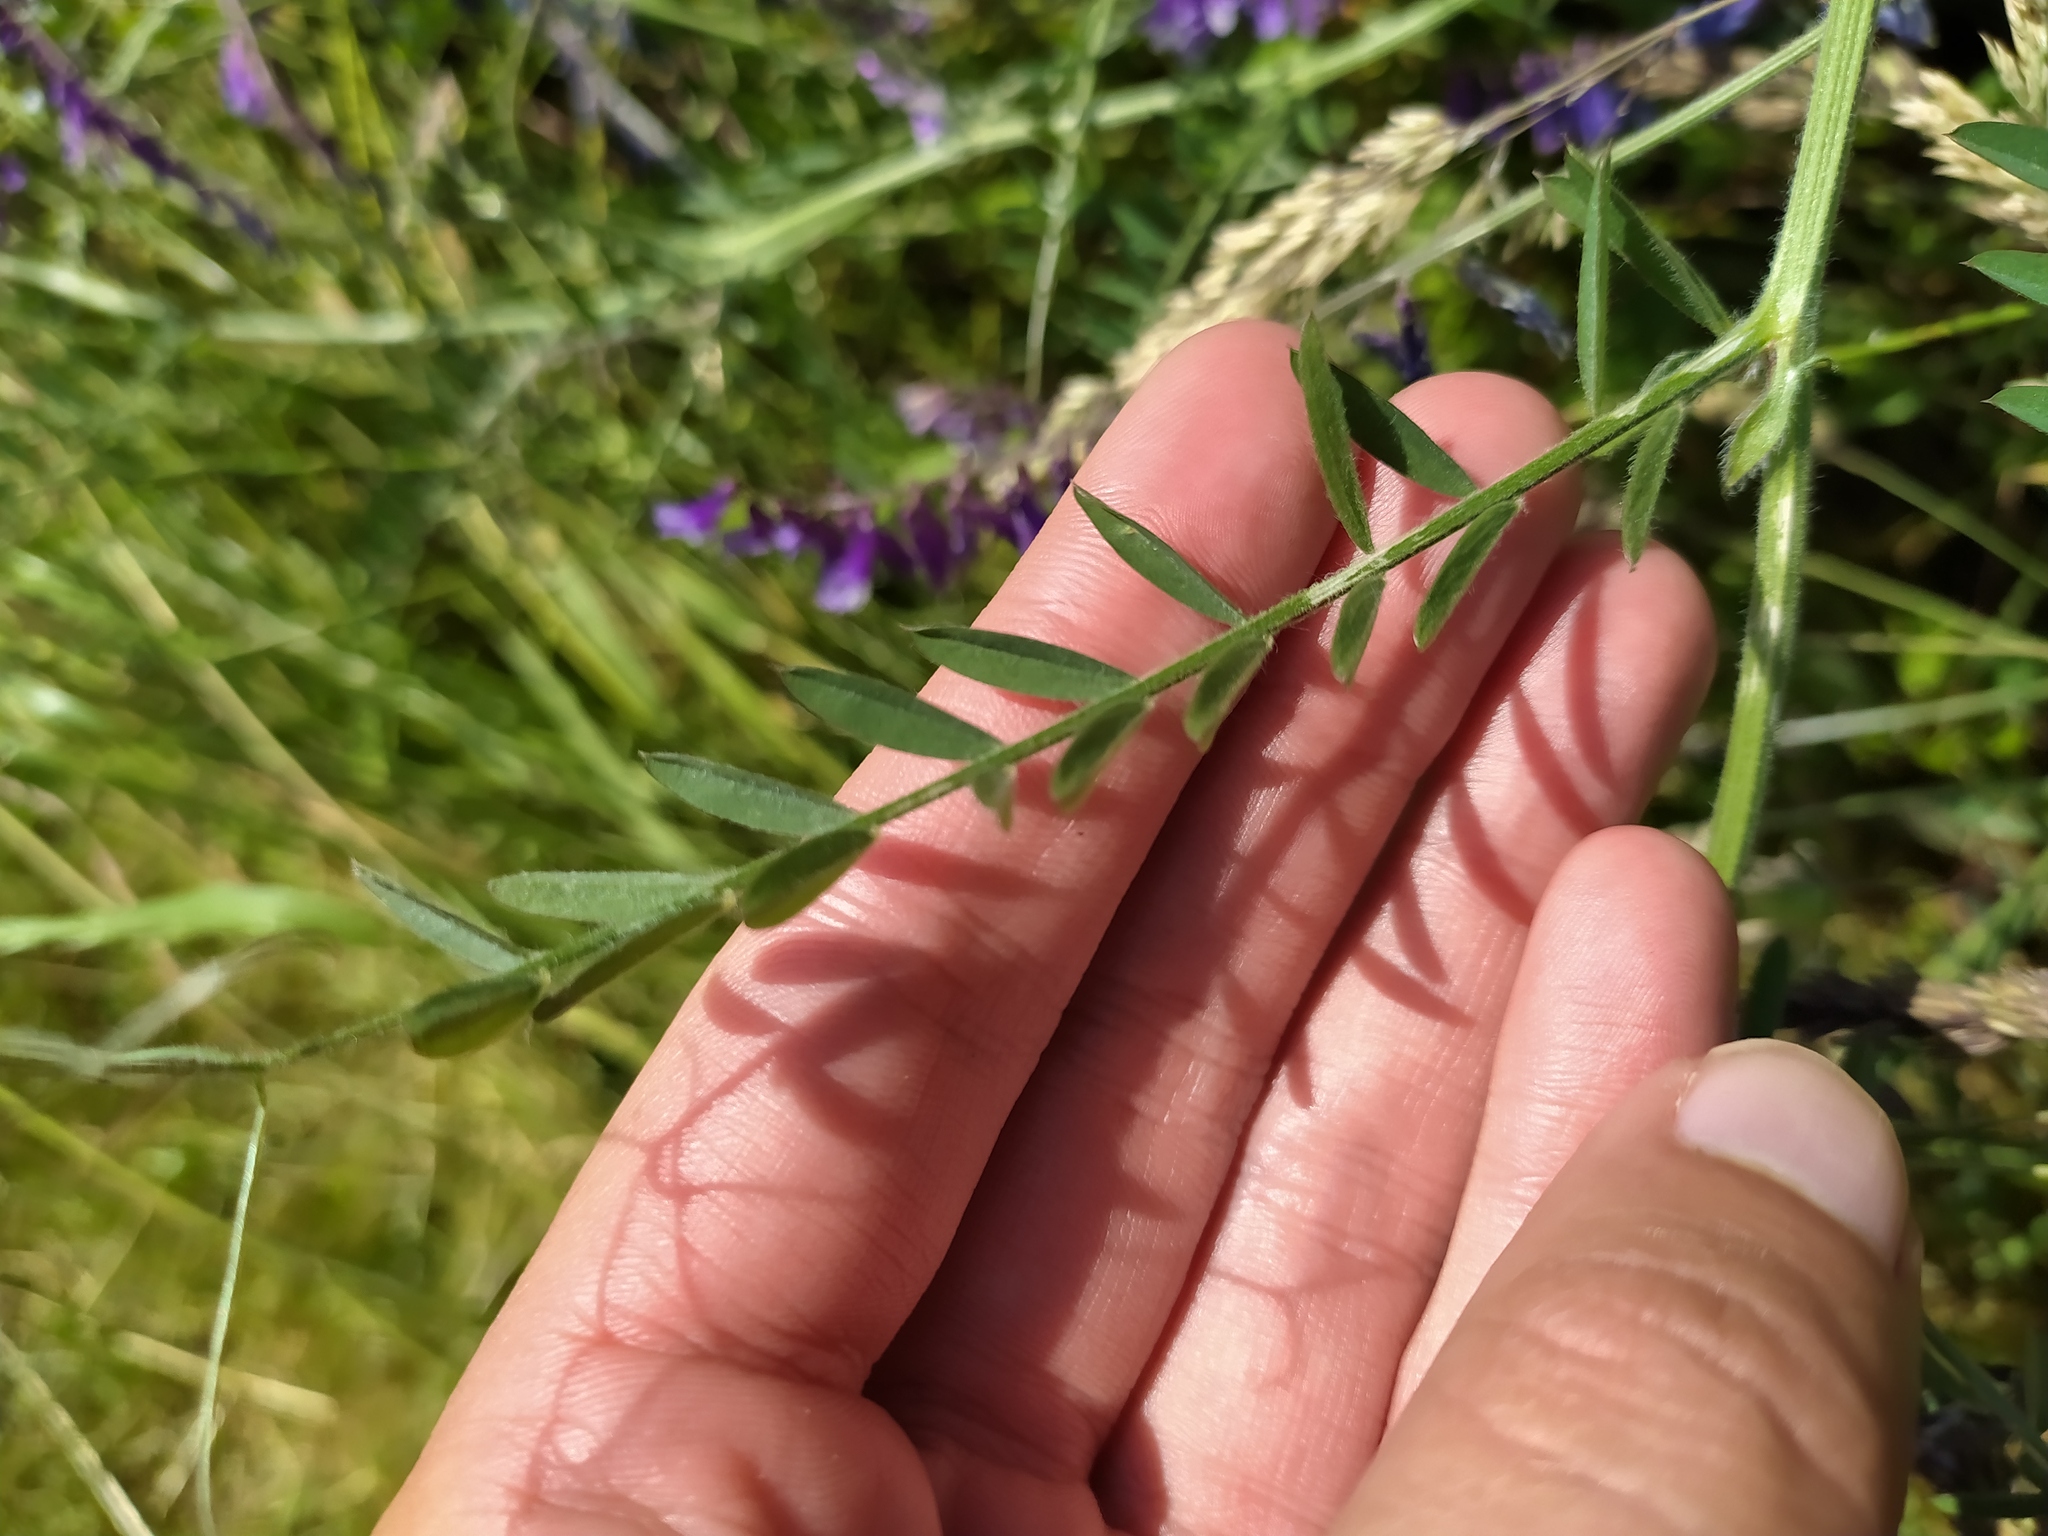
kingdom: Plantae
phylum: Tracheophyta
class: Magnoliopsida
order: Fabales
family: Fabaceae
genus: Vicia
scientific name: Vicia villosa
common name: Fodder vetch
